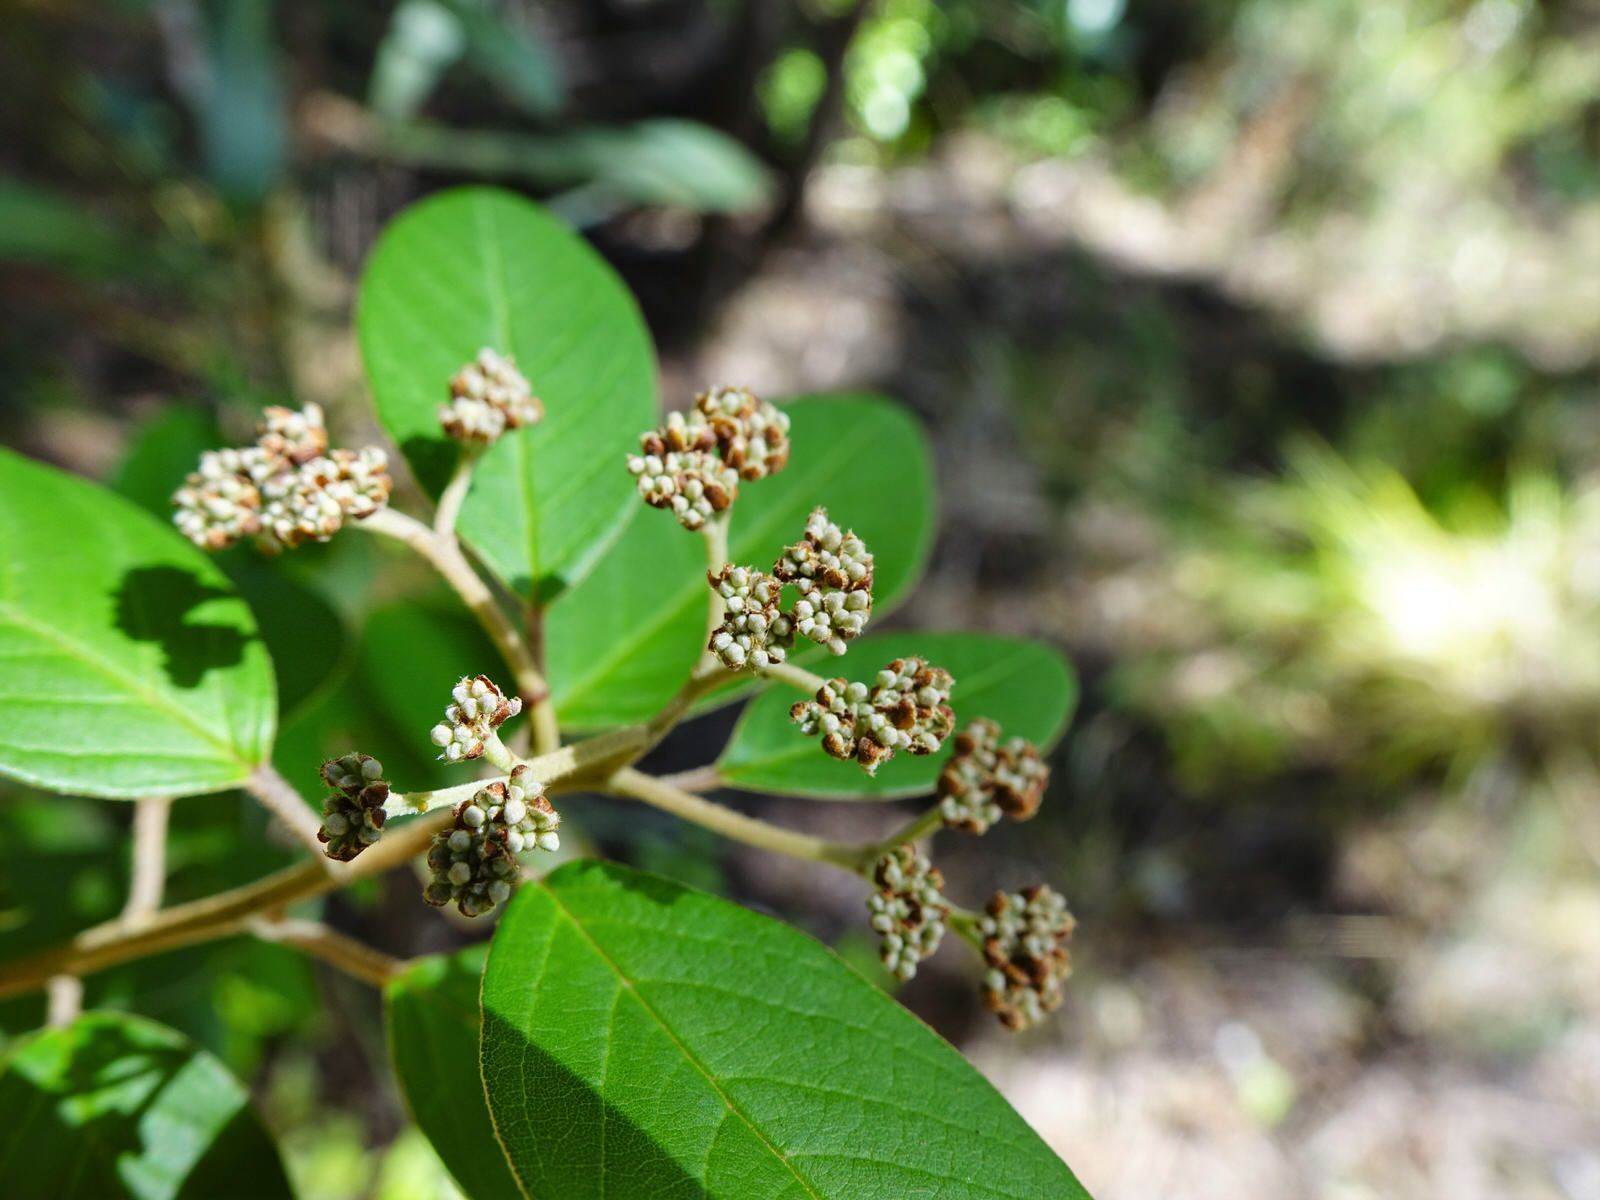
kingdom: Plantae
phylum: Tracheophyta
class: Magnoliopsida
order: Rosales
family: Rhamnaceae
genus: Pomaderris
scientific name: Pomaderris kumeraho
